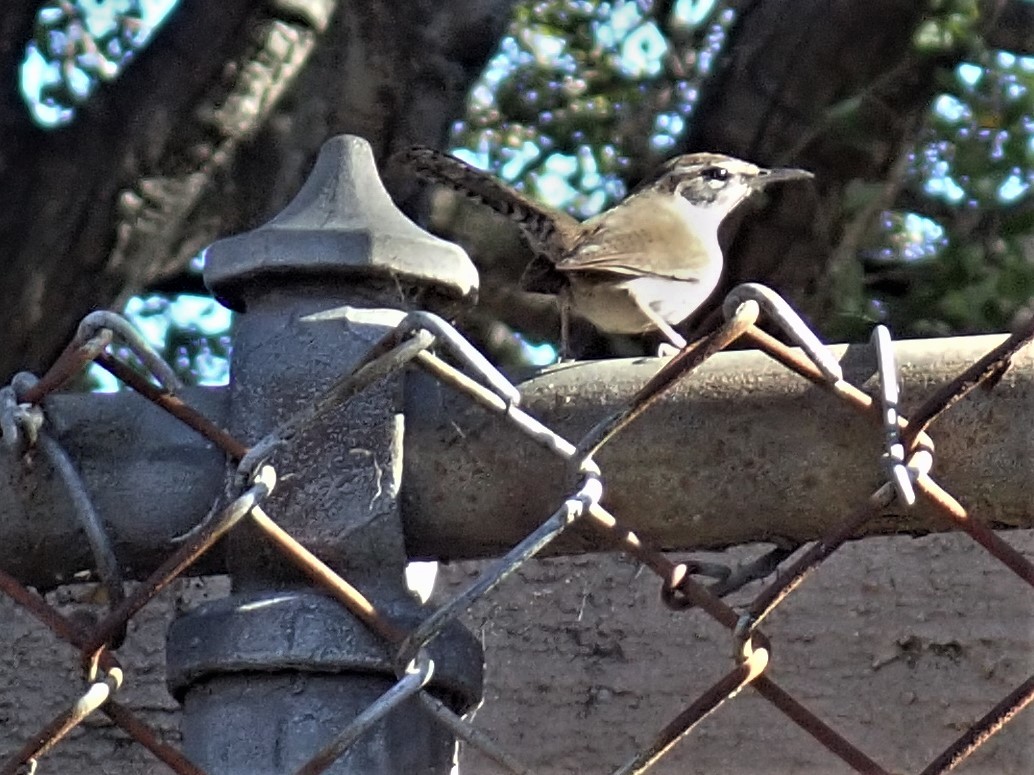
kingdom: Animalia
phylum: Chordata
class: Aves
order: Passeriformes
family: Troglodytidae
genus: Thryomanes
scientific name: Thryomanes bewickii
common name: Bewick's wren
